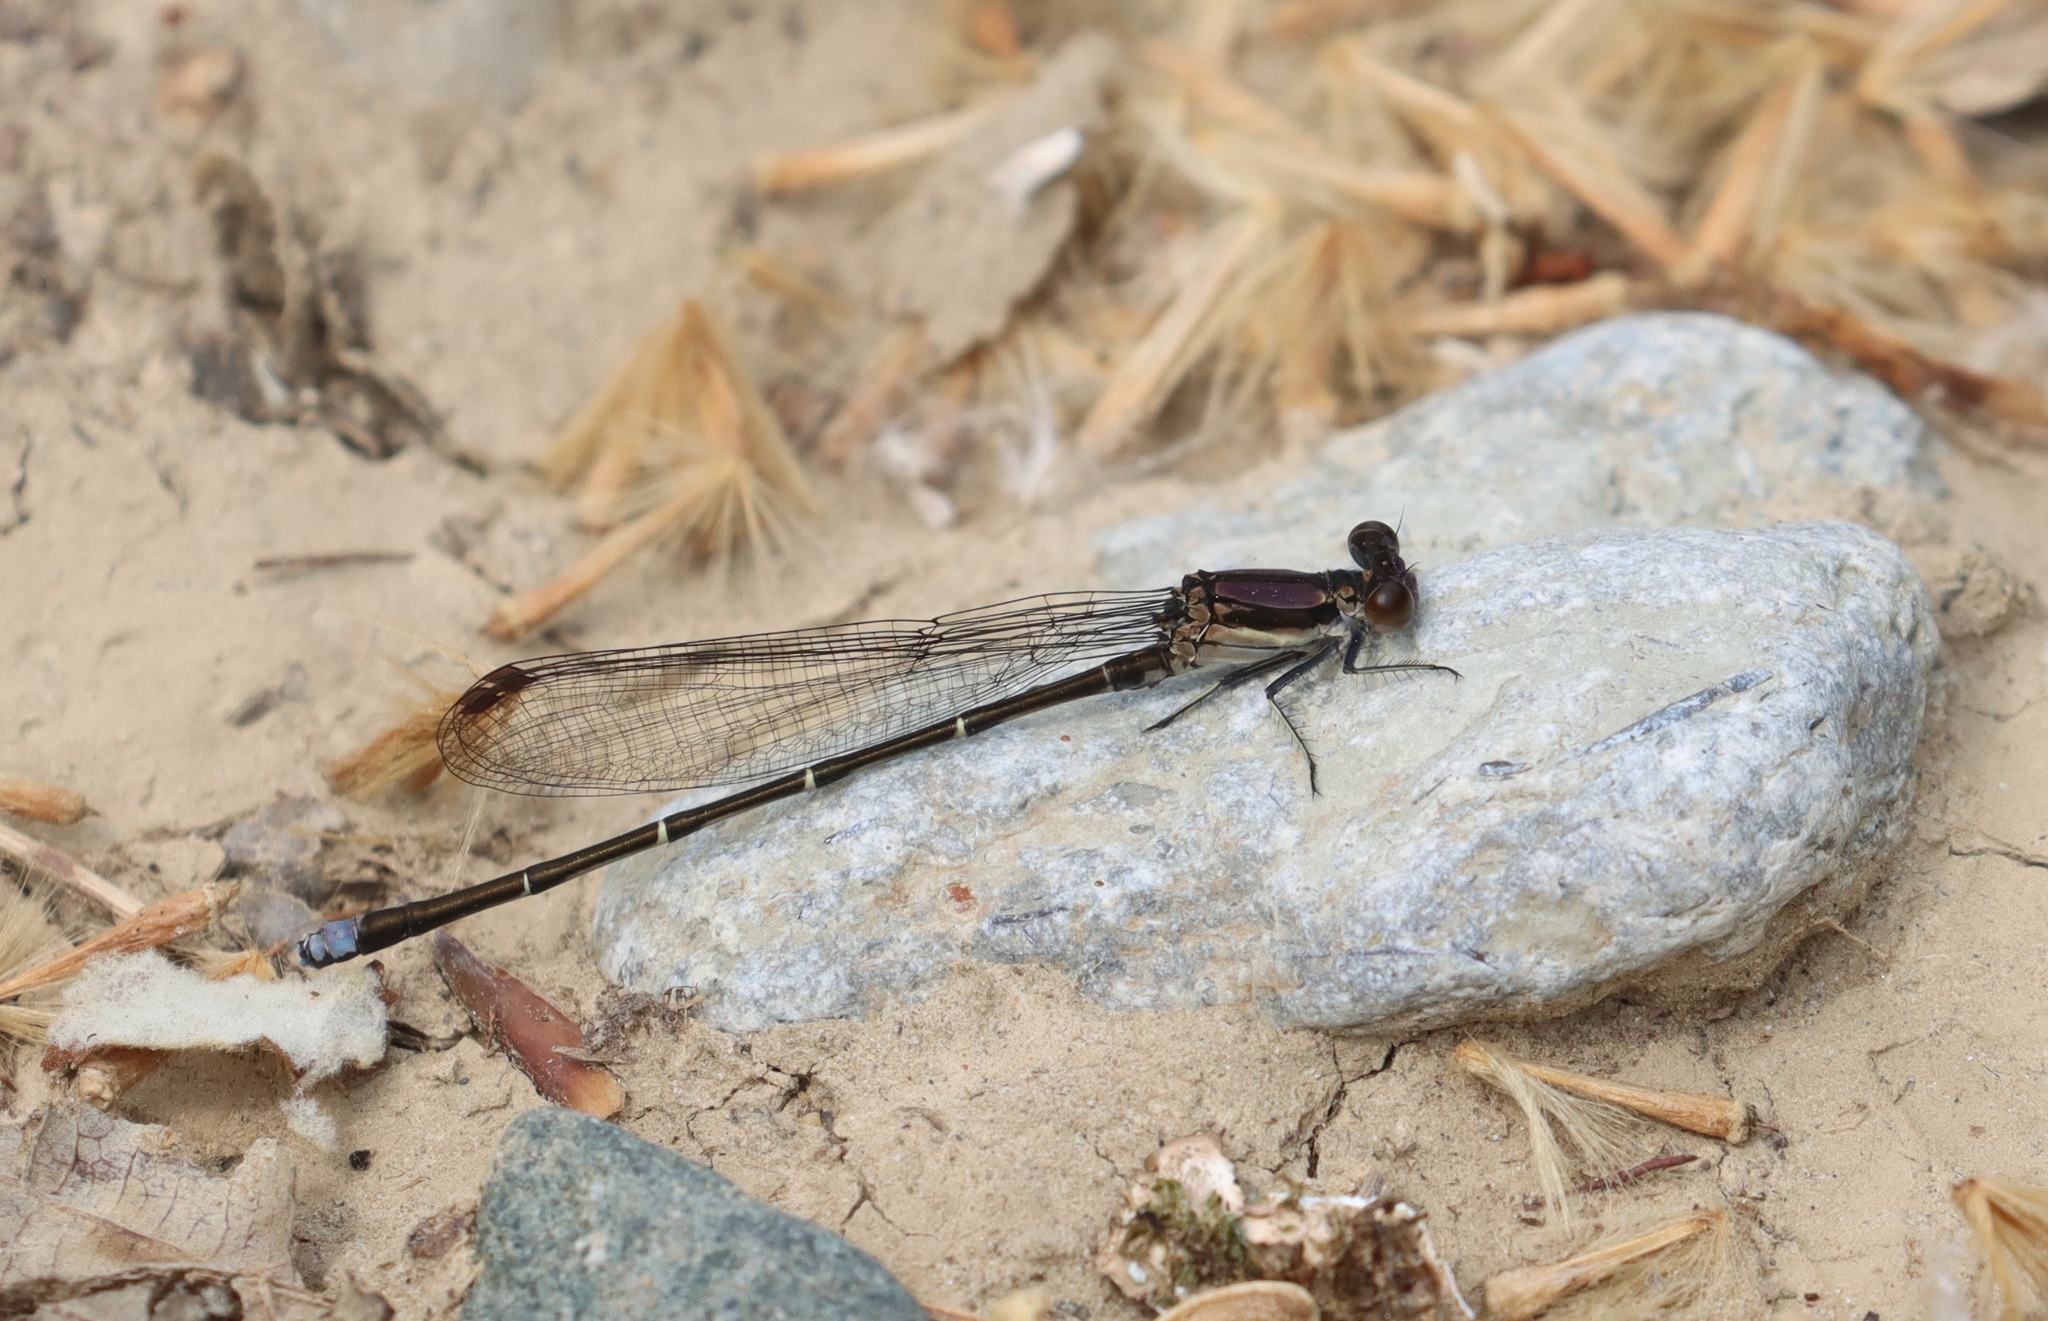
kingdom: Animalia
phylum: Arthropoda
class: Insecta
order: Odonata
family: Coenagrionidae
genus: Argia
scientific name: Argia tibialis
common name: Blue-tipped dancer
